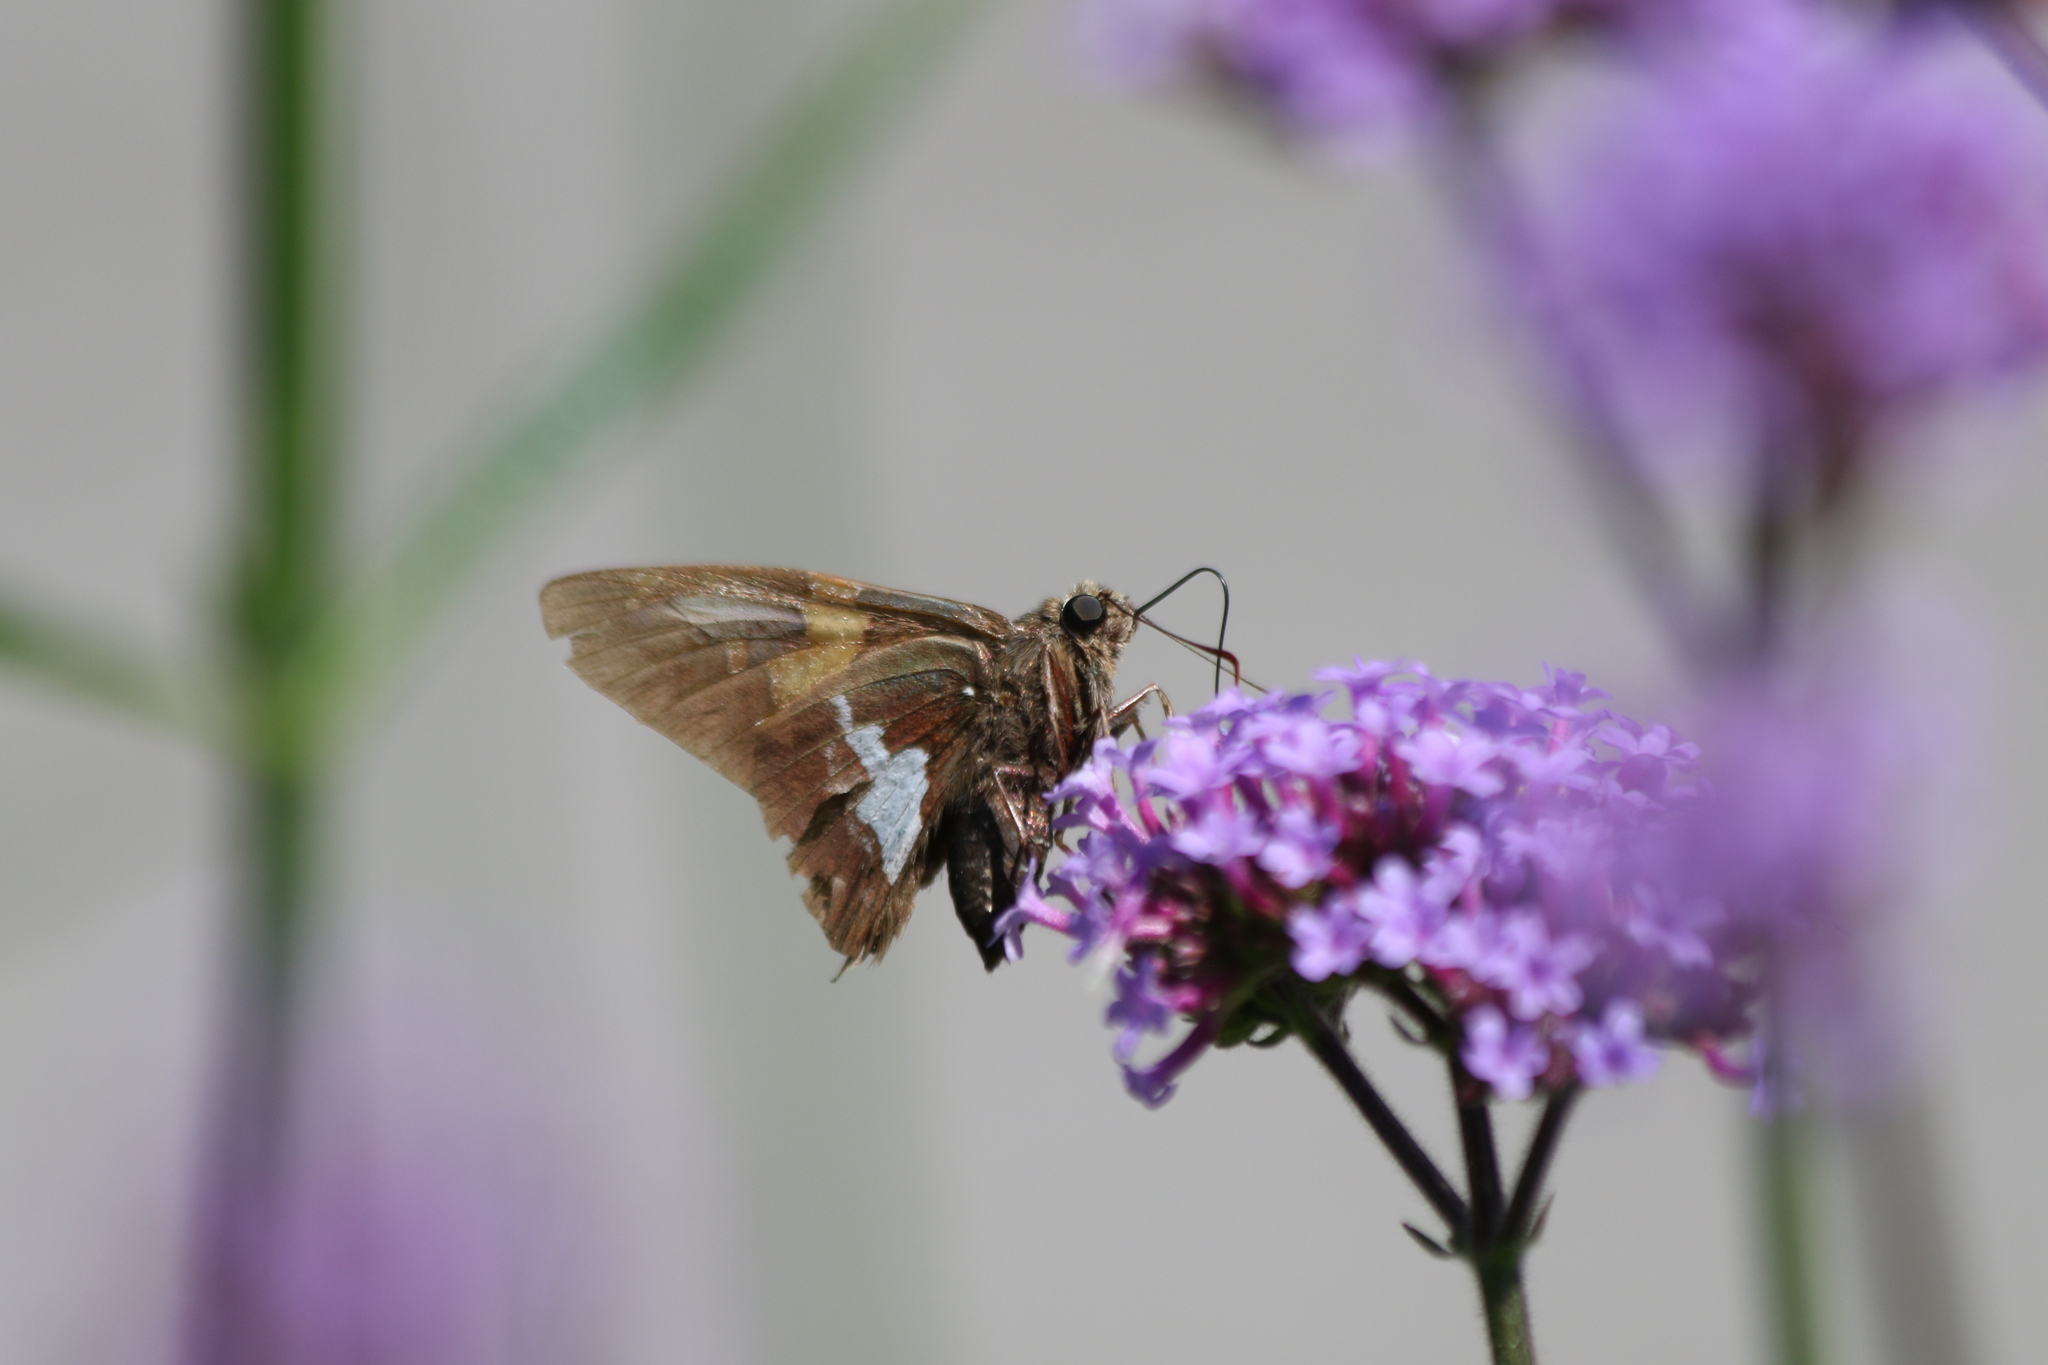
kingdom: Animalia
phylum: Arthropoda
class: Insecta
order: Lepidoptera
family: Hesperiidae
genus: Epargyreus
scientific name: Epargyreus clarus
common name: Silver-spotted skipper
